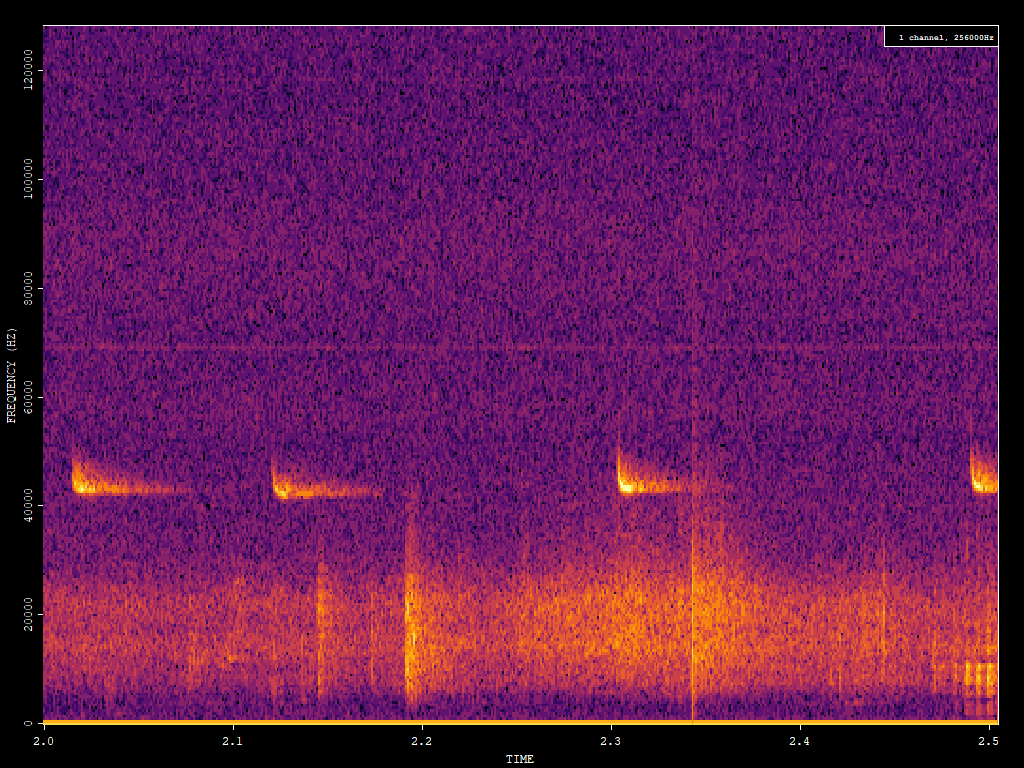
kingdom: Animalia
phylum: Chordata
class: Mammalia
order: Chiroptera
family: Vespertilionidae
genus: Pipistrellus
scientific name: Pipistrellus pipistrellus
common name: Common pipistrelle
